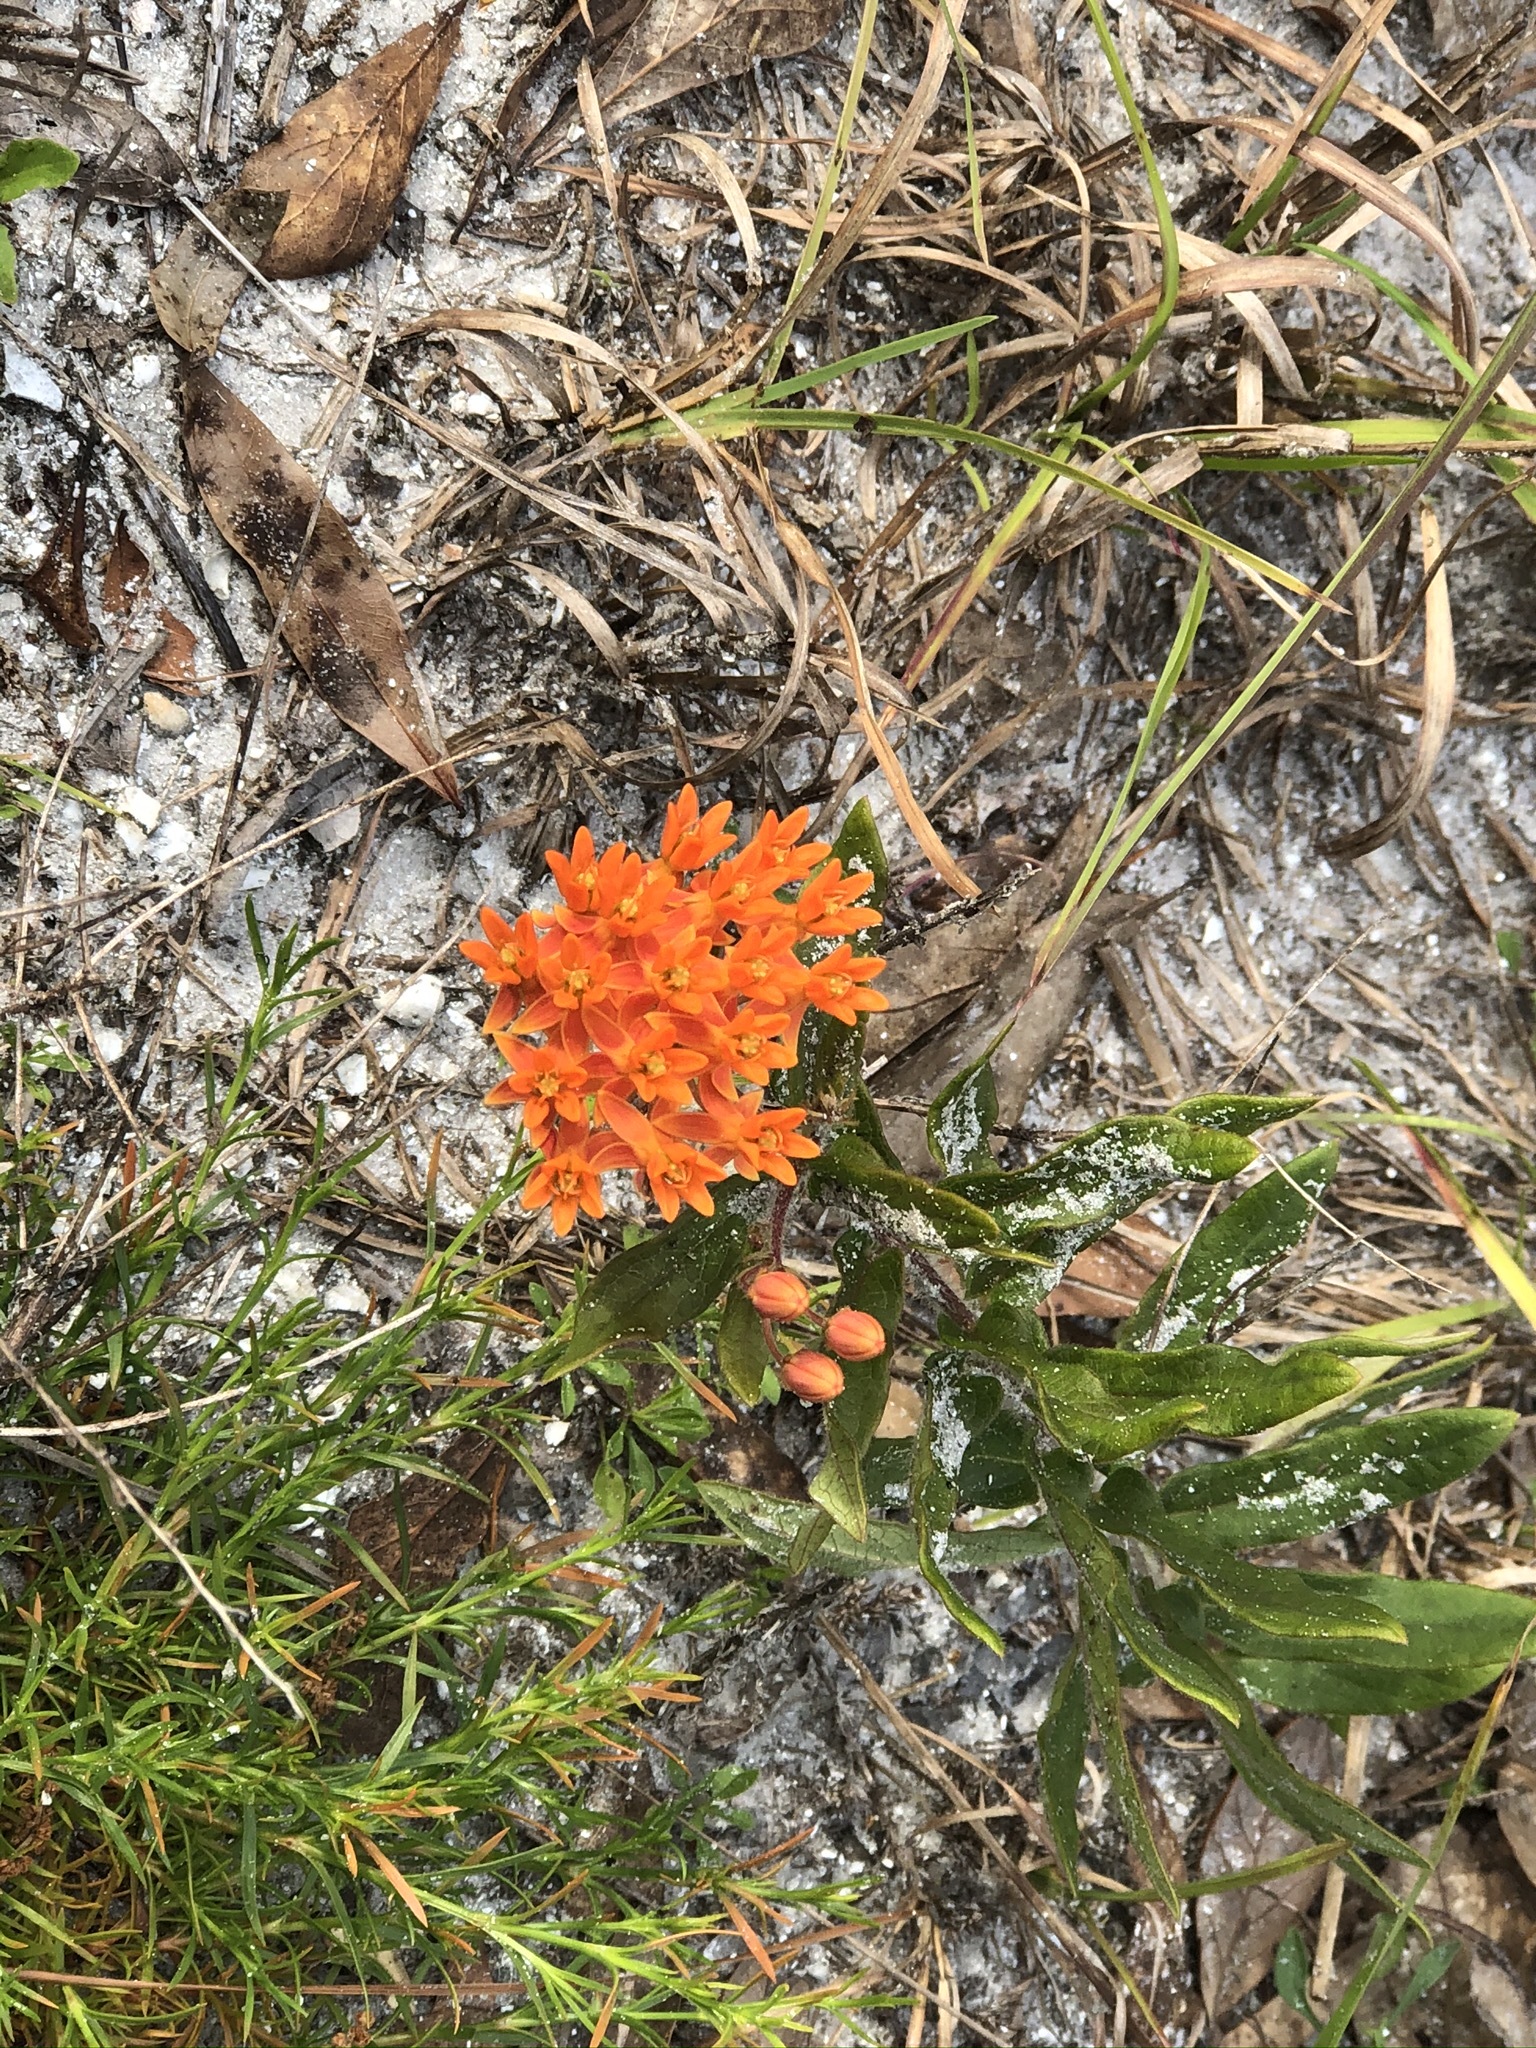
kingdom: Plantae
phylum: Tracheophyta
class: Magnoliopsida
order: Gentianales
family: Apocynaceae
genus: Asclepias
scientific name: Asclepias tuberosa
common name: Butterfly milkweed
